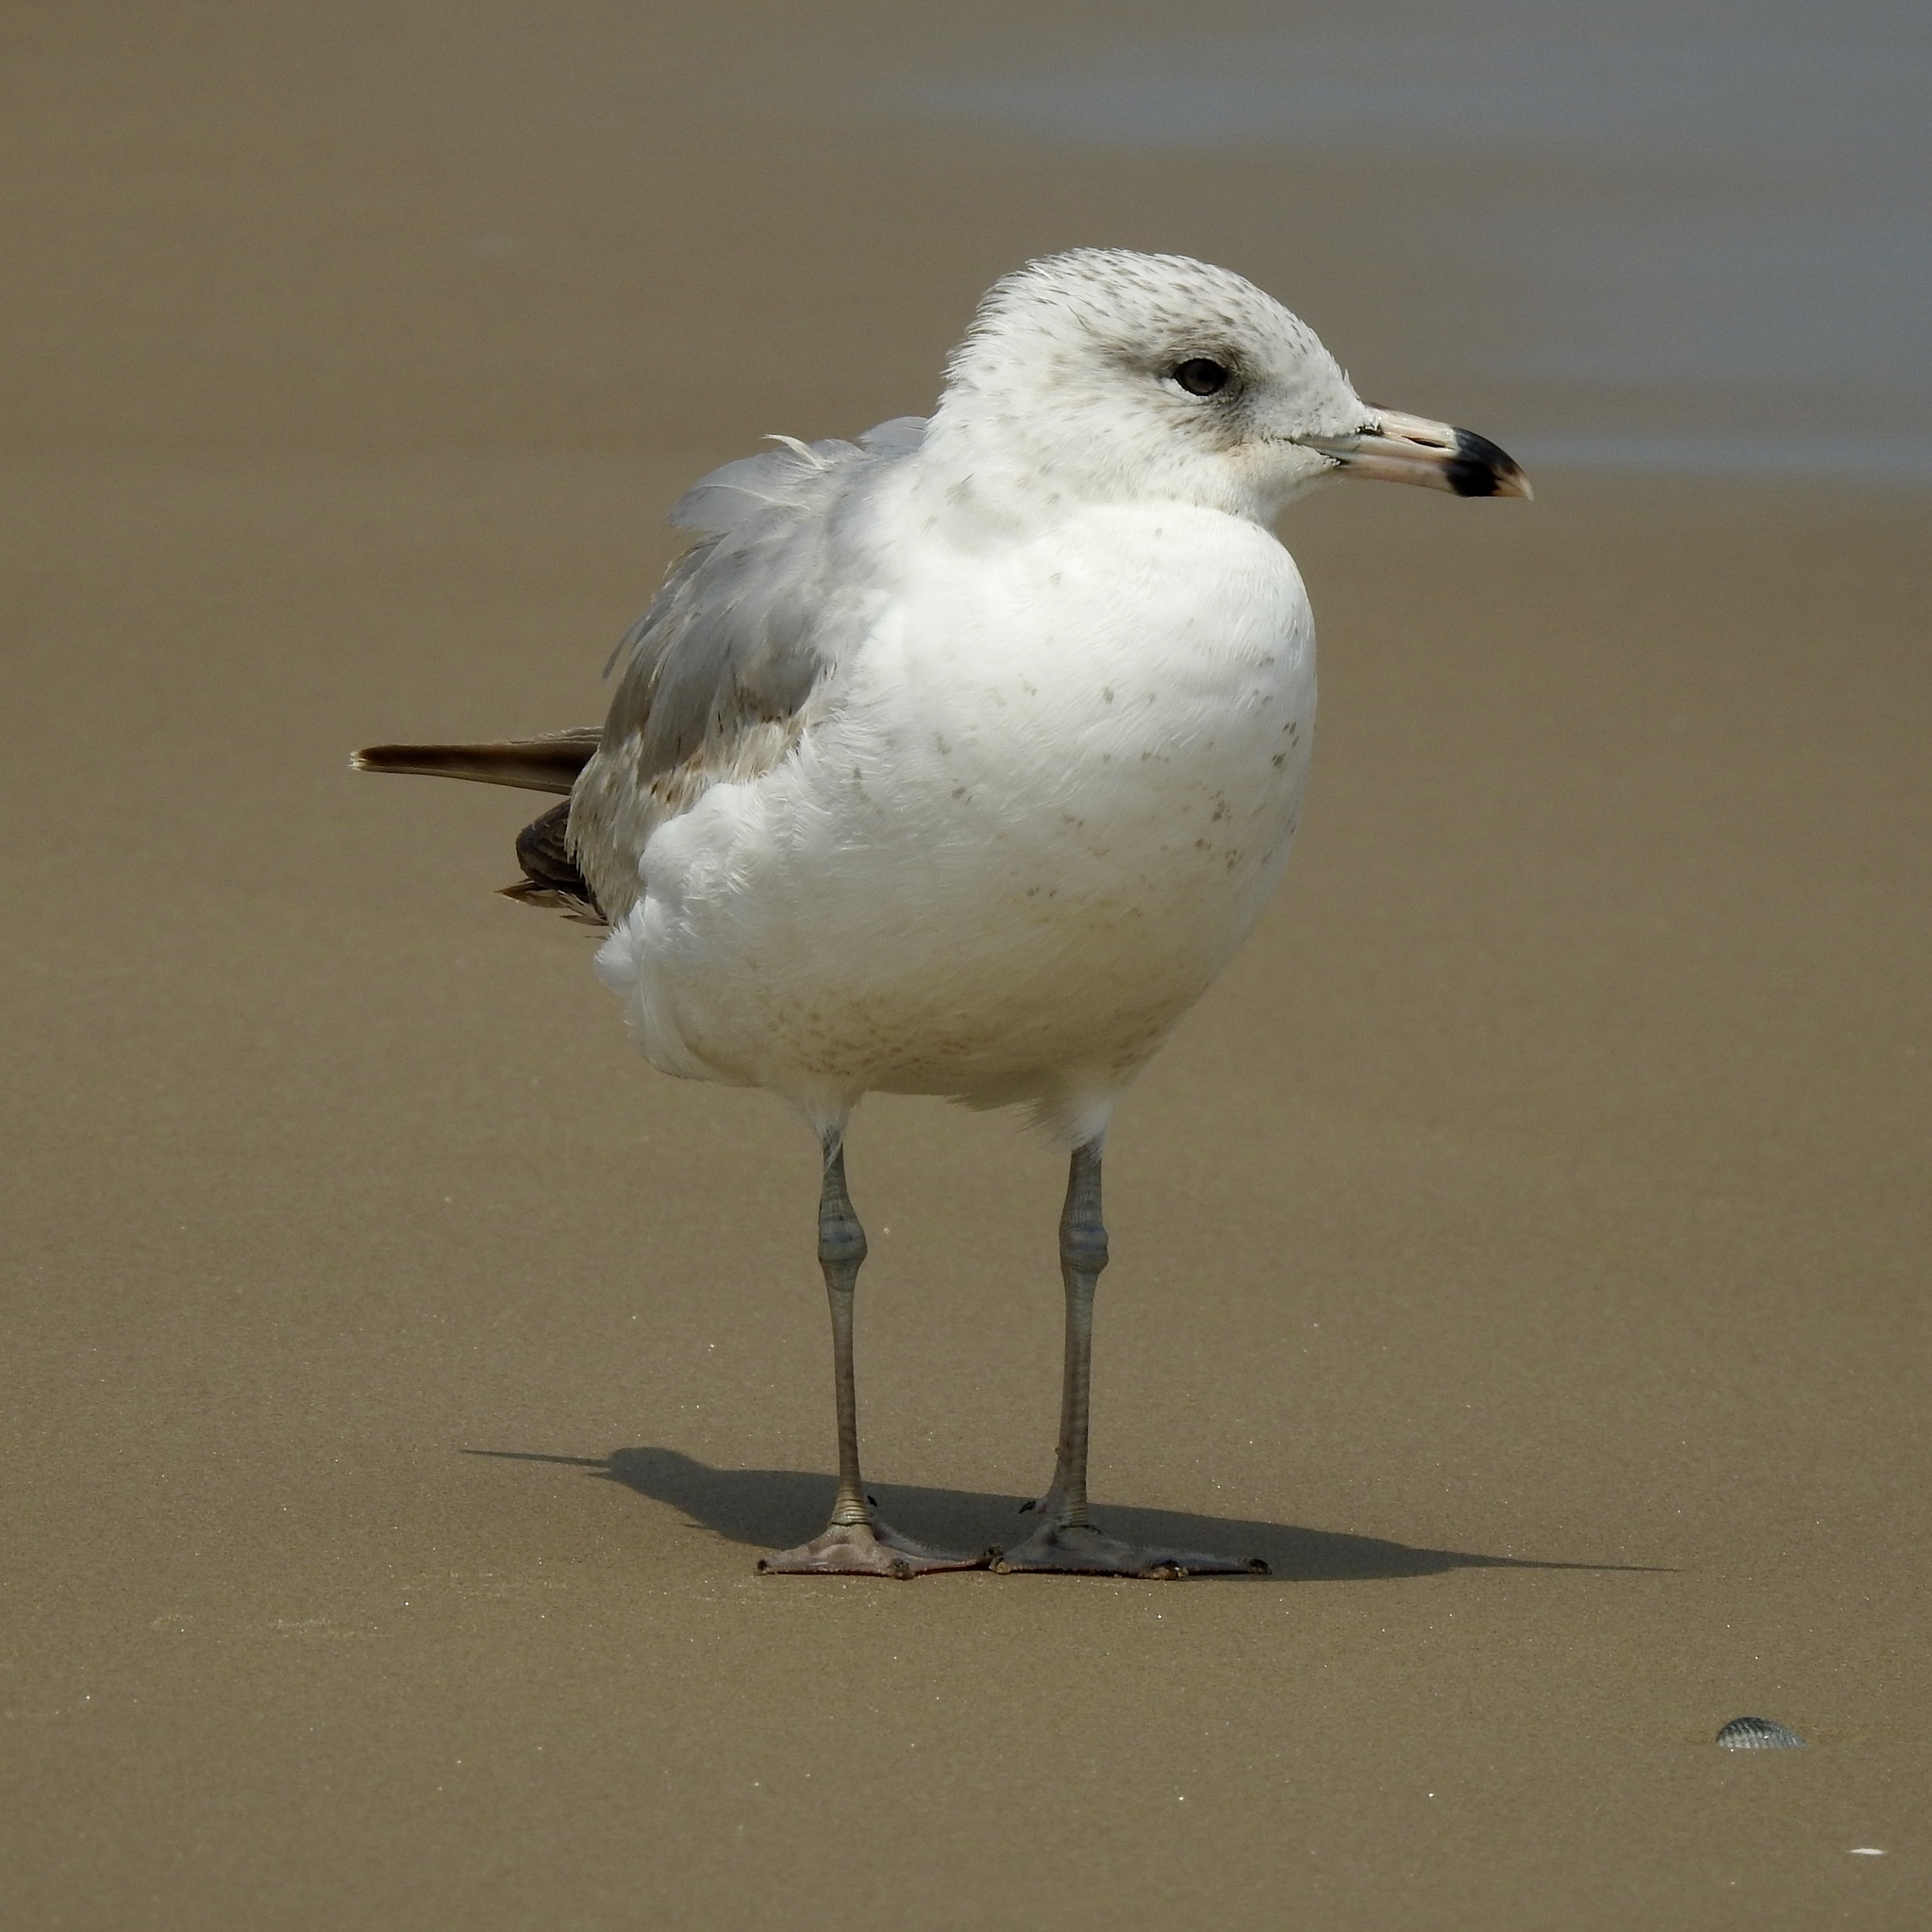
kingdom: Animalia
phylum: Chordata
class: Aves
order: Charadriiformes
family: Laridae
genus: Larus
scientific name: Larus delawarensis
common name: Ring-billed gull
